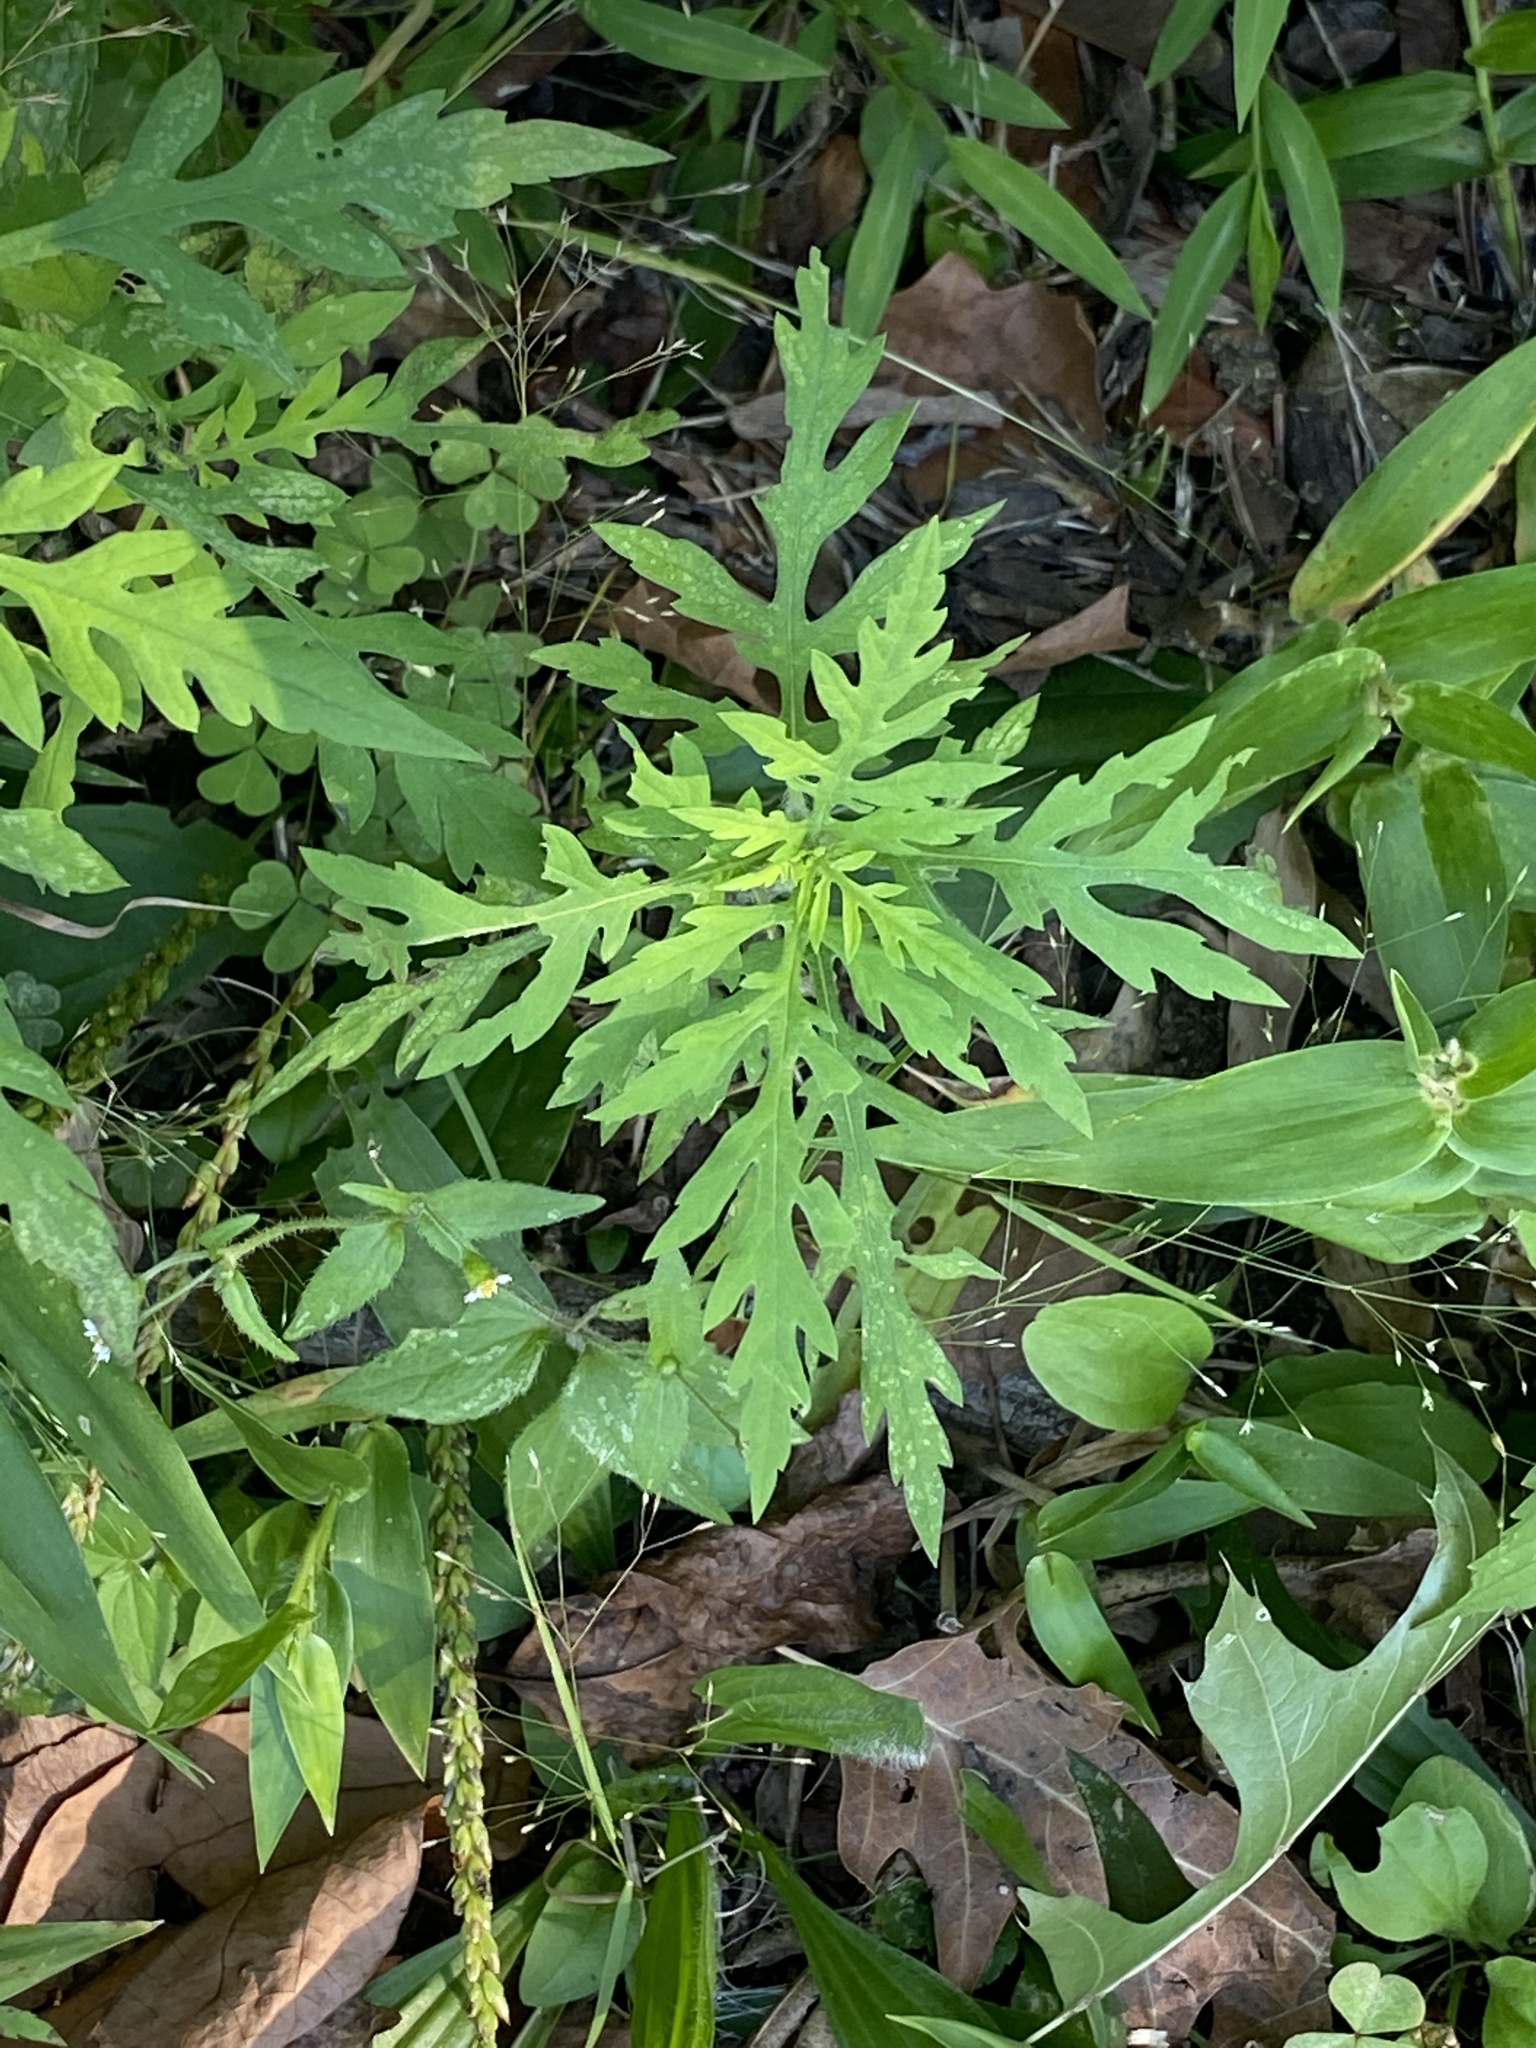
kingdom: Plantae
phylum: Tracheophyta
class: Magnoliopsida
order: Asterales
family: Asteraceae
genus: Ambrosia
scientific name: Ambrosia artemisiifolia
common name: Annual ragweed
